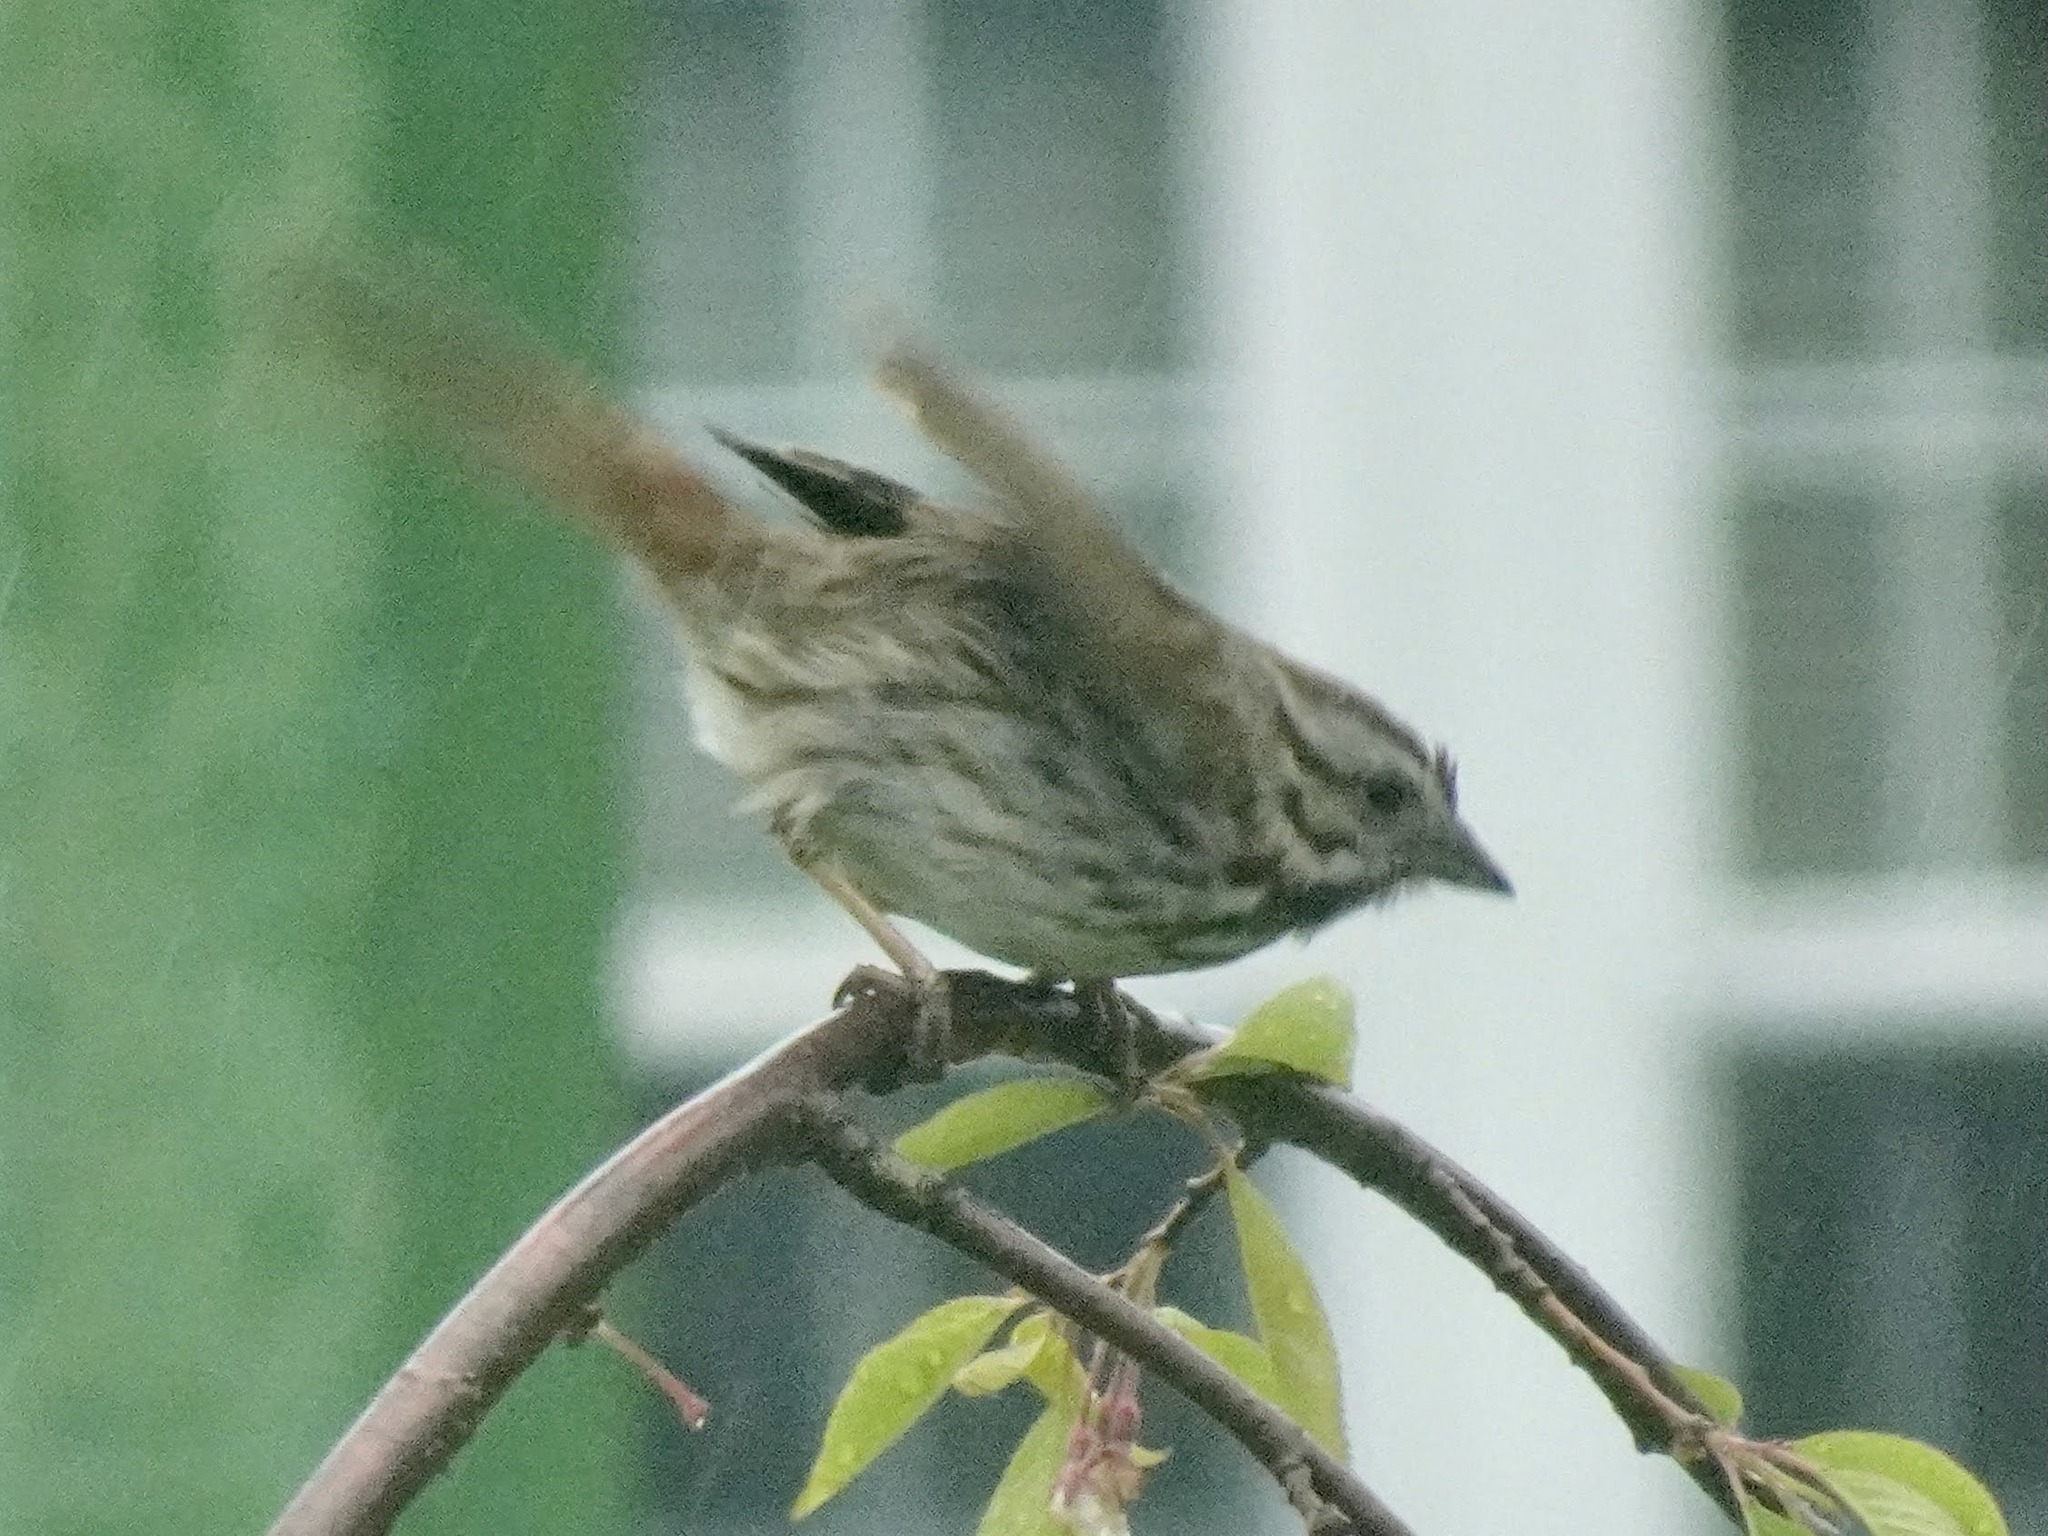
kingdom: Animalia
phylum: Chordata
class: Aves
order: Passeriformes
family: Passerellidae
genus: Melospiza
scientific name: Melospiza melodia
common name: Song sparrow
